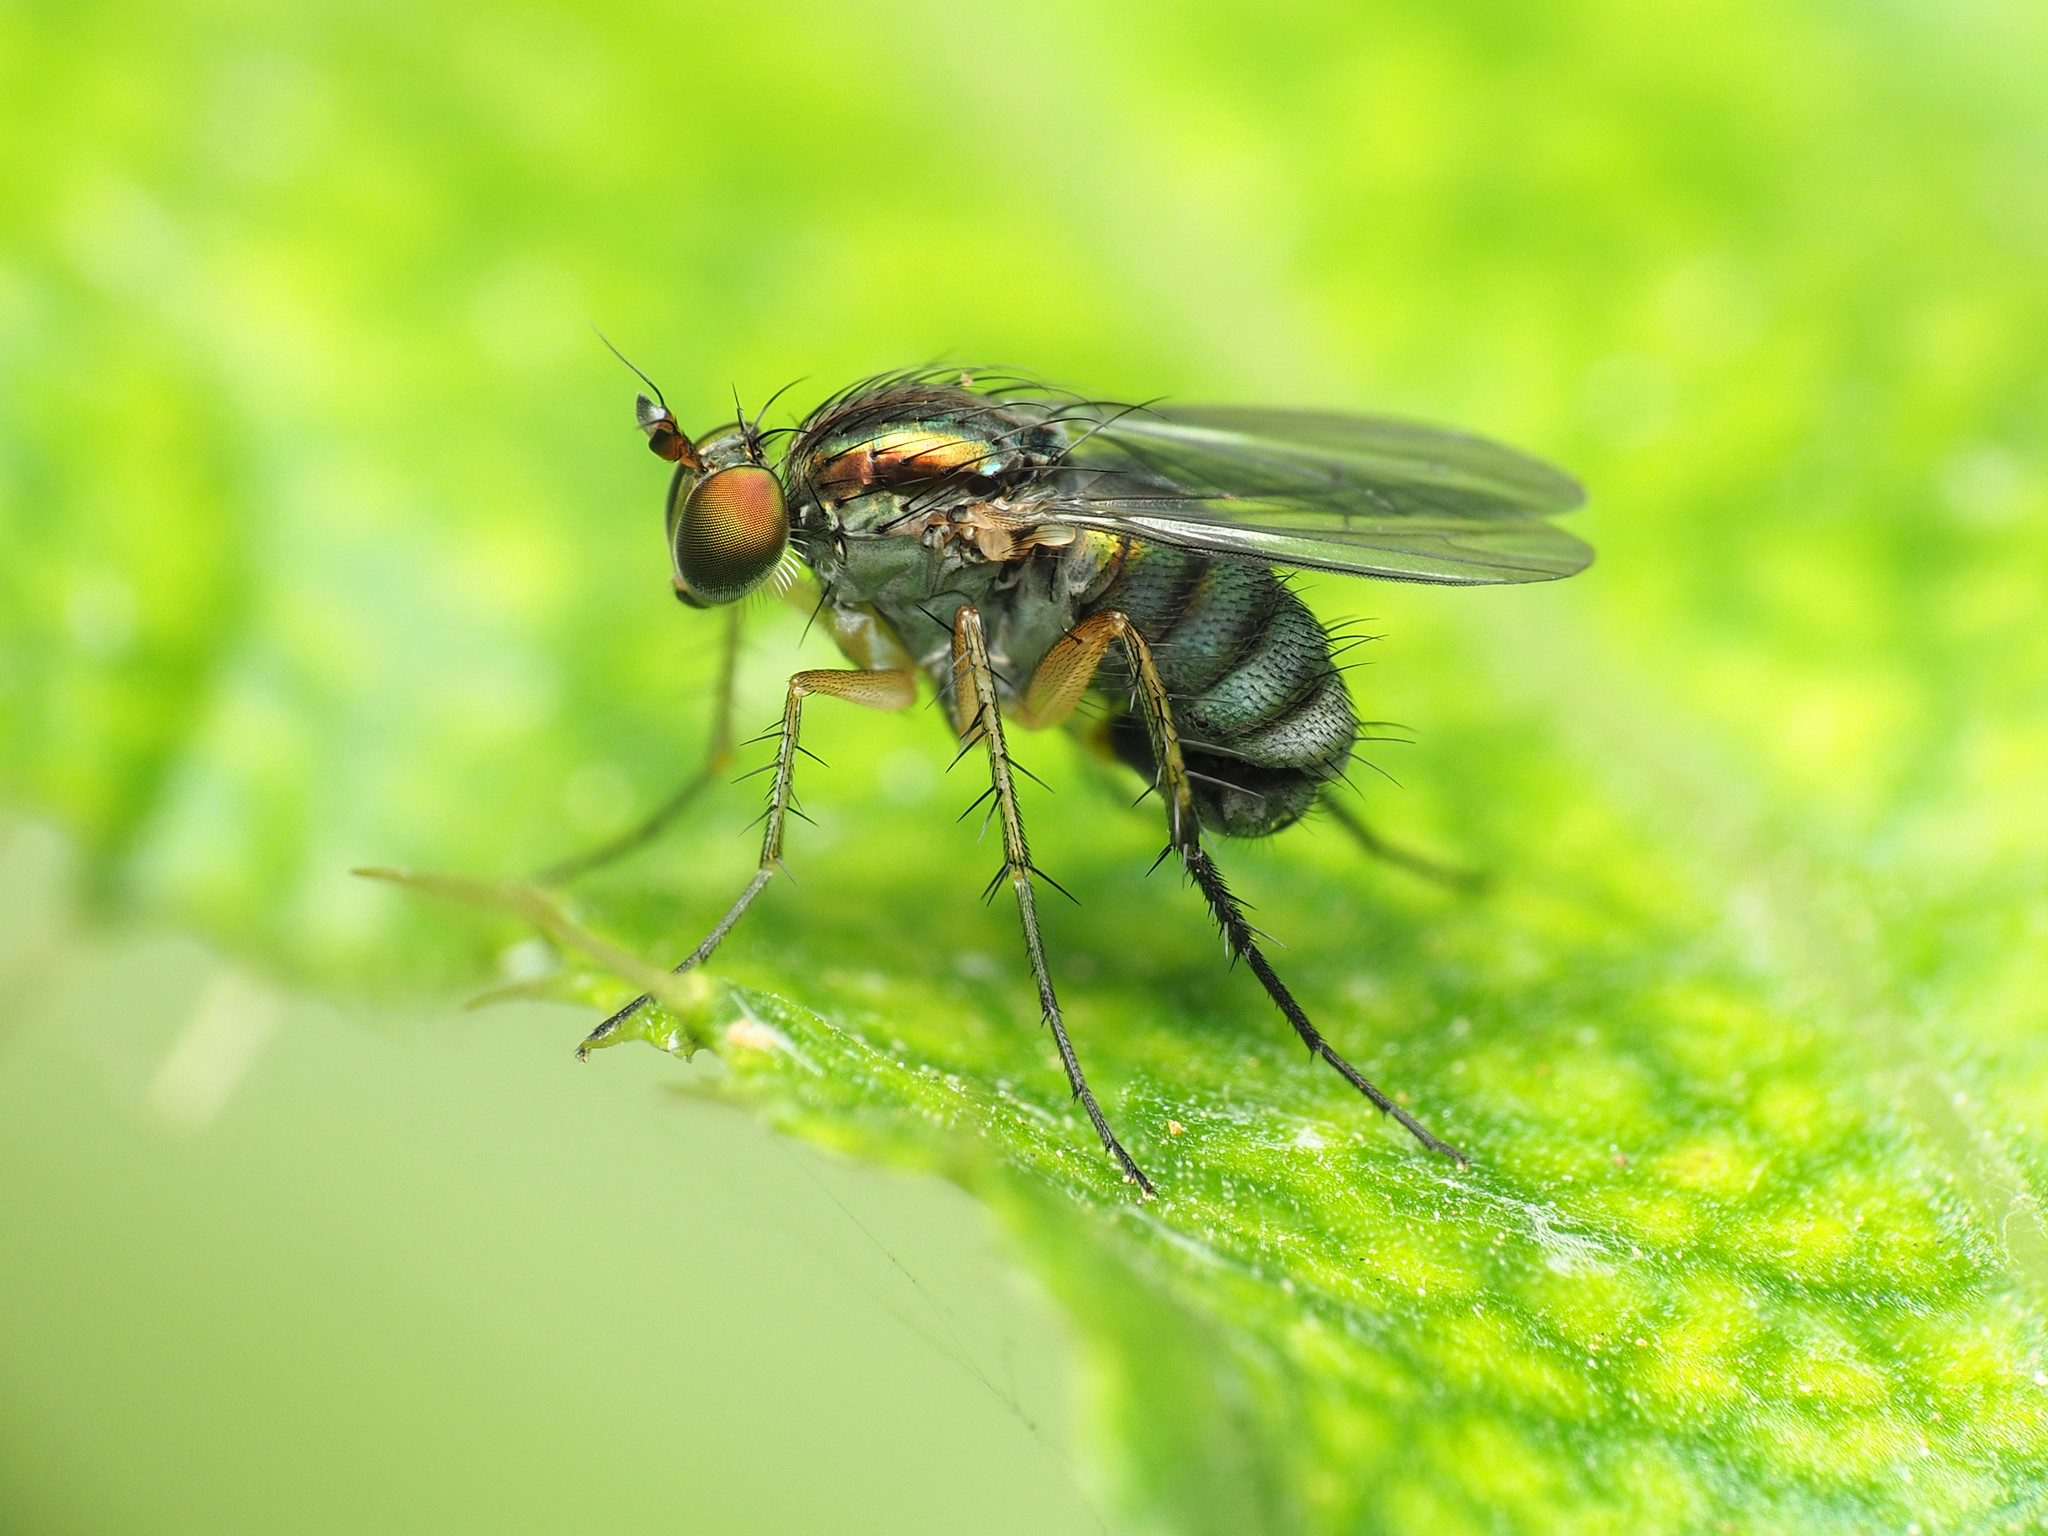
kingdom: Animalia
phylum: Arthropoda
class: Insecta
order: Diptera
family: Dolichopodidae
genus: Dolichopus
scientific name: Dolichopus reflectus
